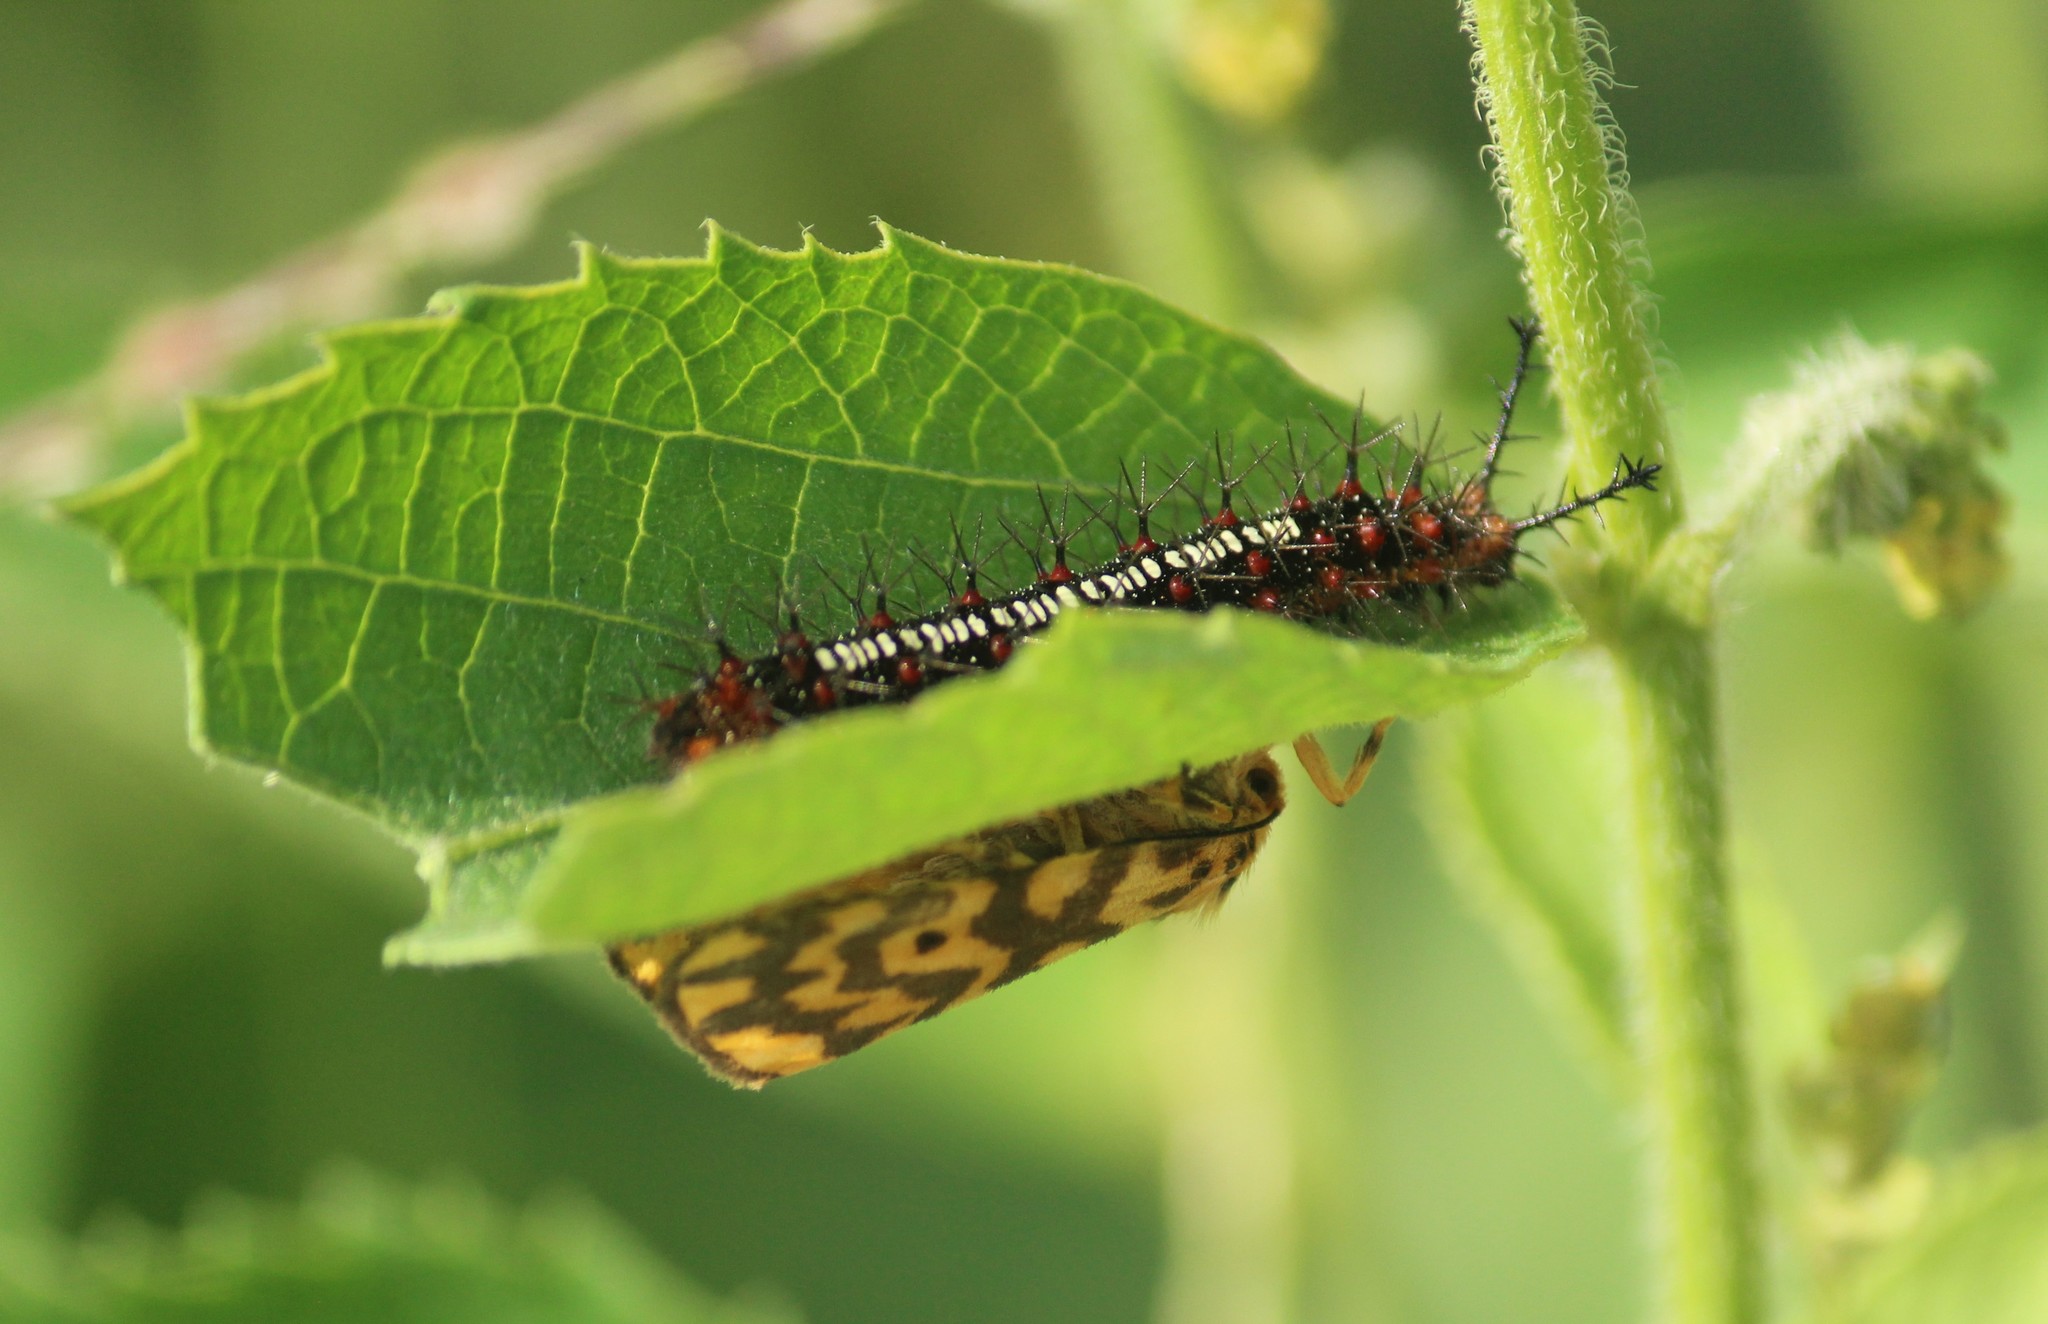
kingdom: Animalia
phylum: Arthropoda
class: Insecta
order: Lepidoptera
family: Nymphalidae
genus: Ariadne
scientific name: Ariadne ariadne
